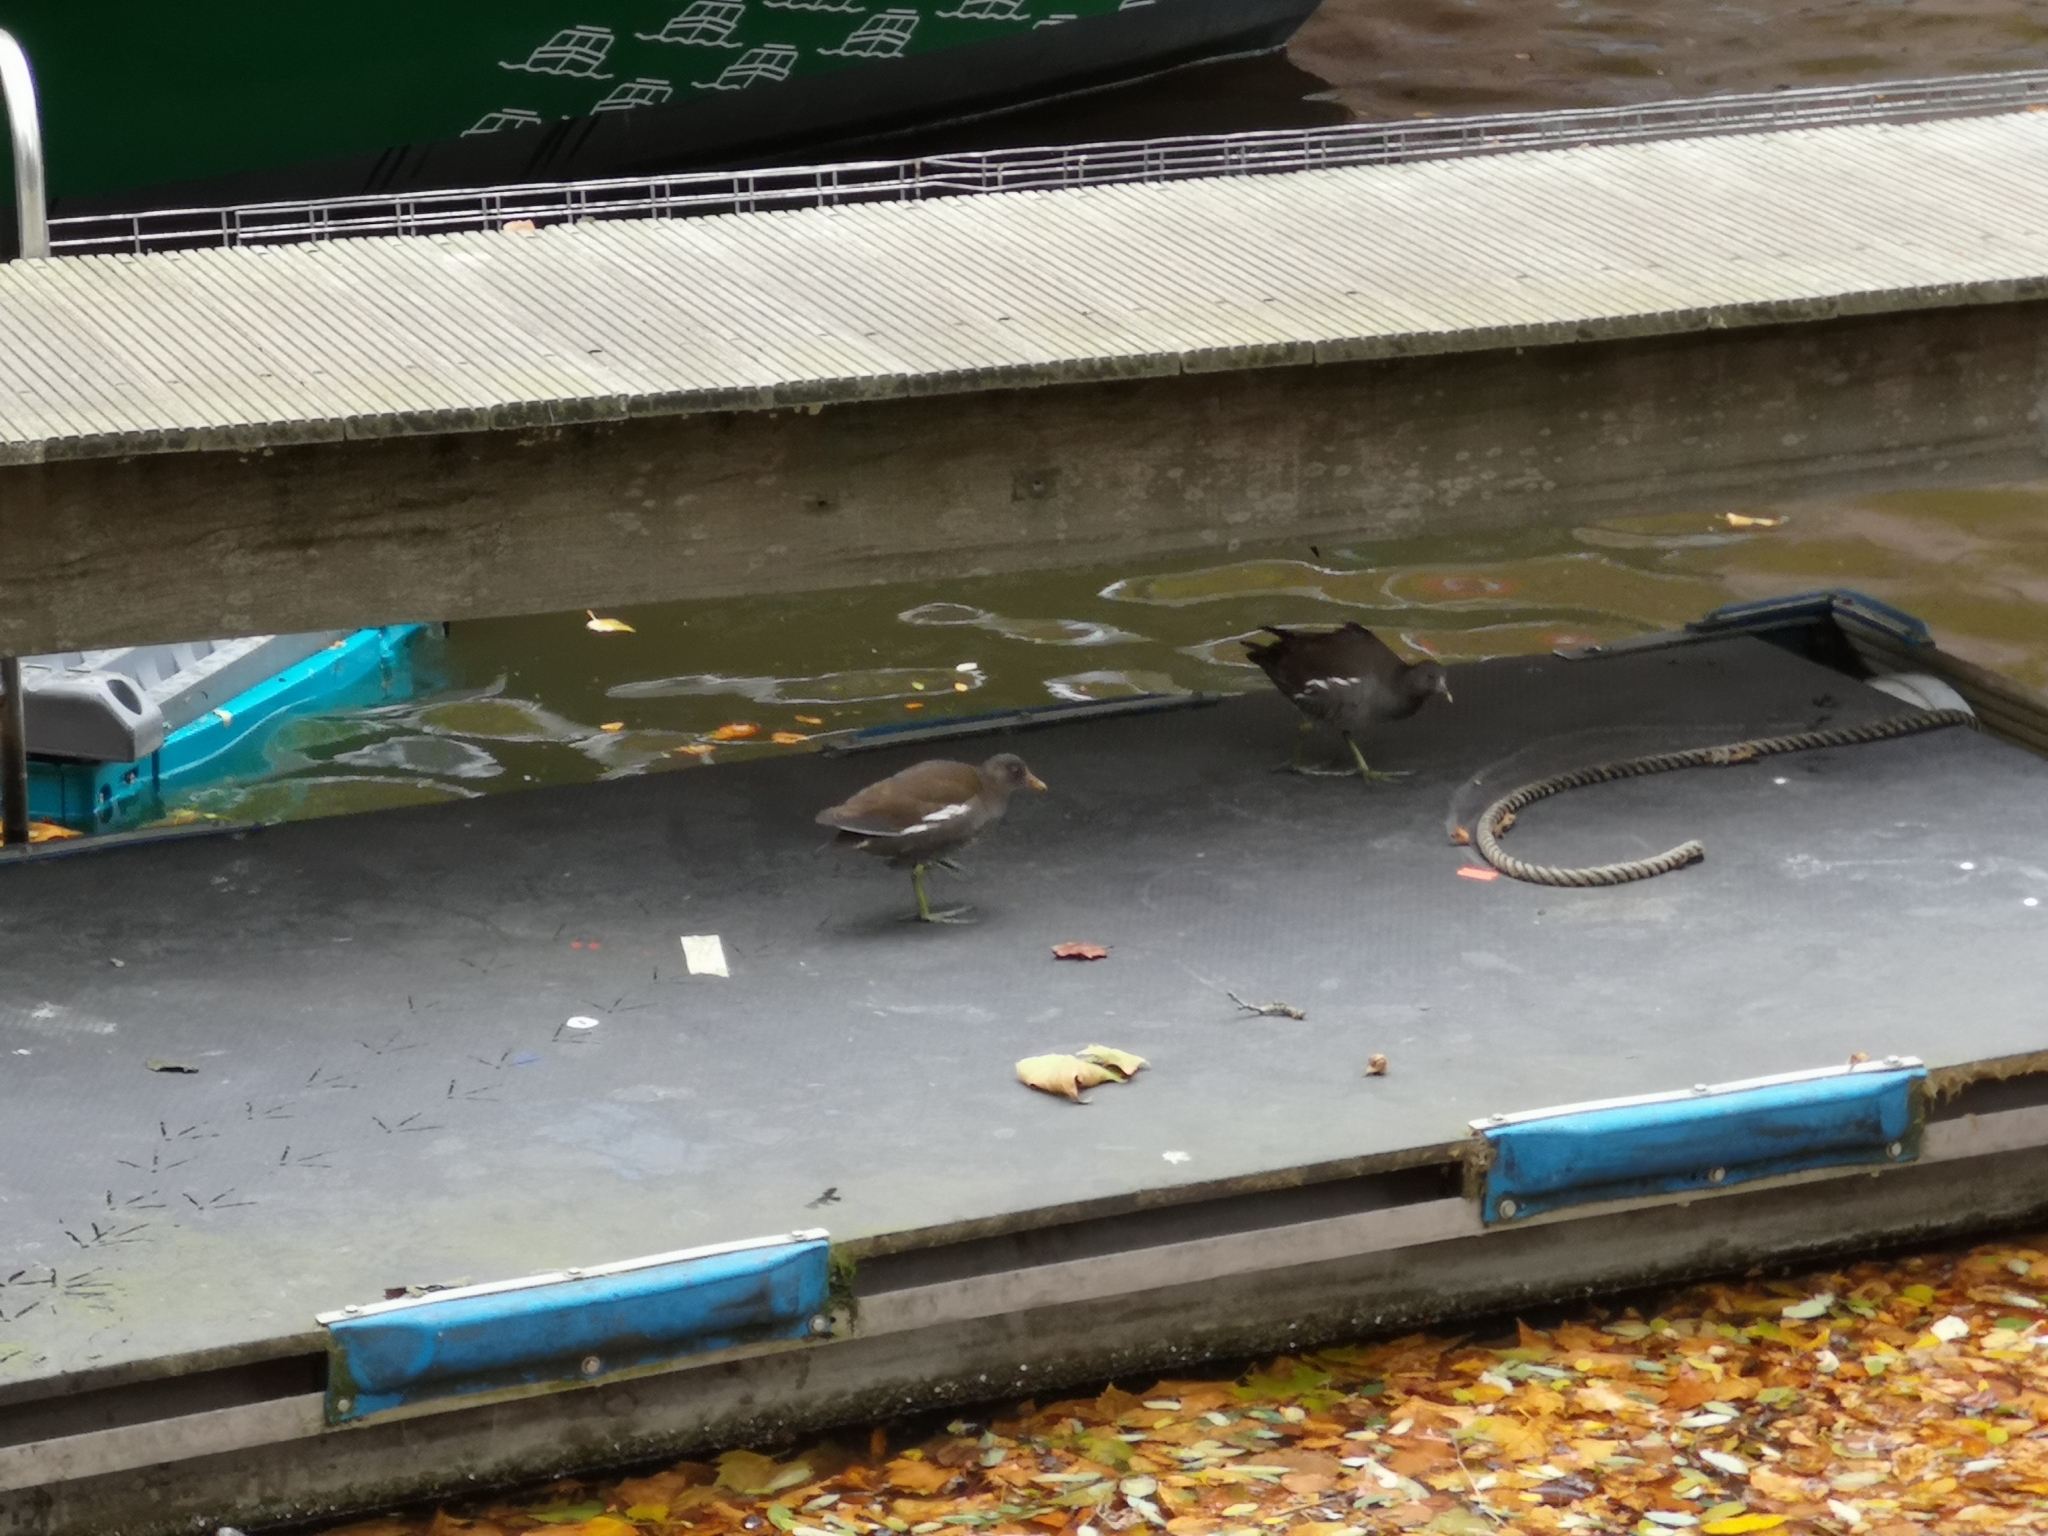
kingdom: Animalia
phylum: Chordata
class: Aves
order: Gruiformes
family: Rallidae
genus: Gallinula
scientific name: Gallinula chloropus
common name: Common moorhen
